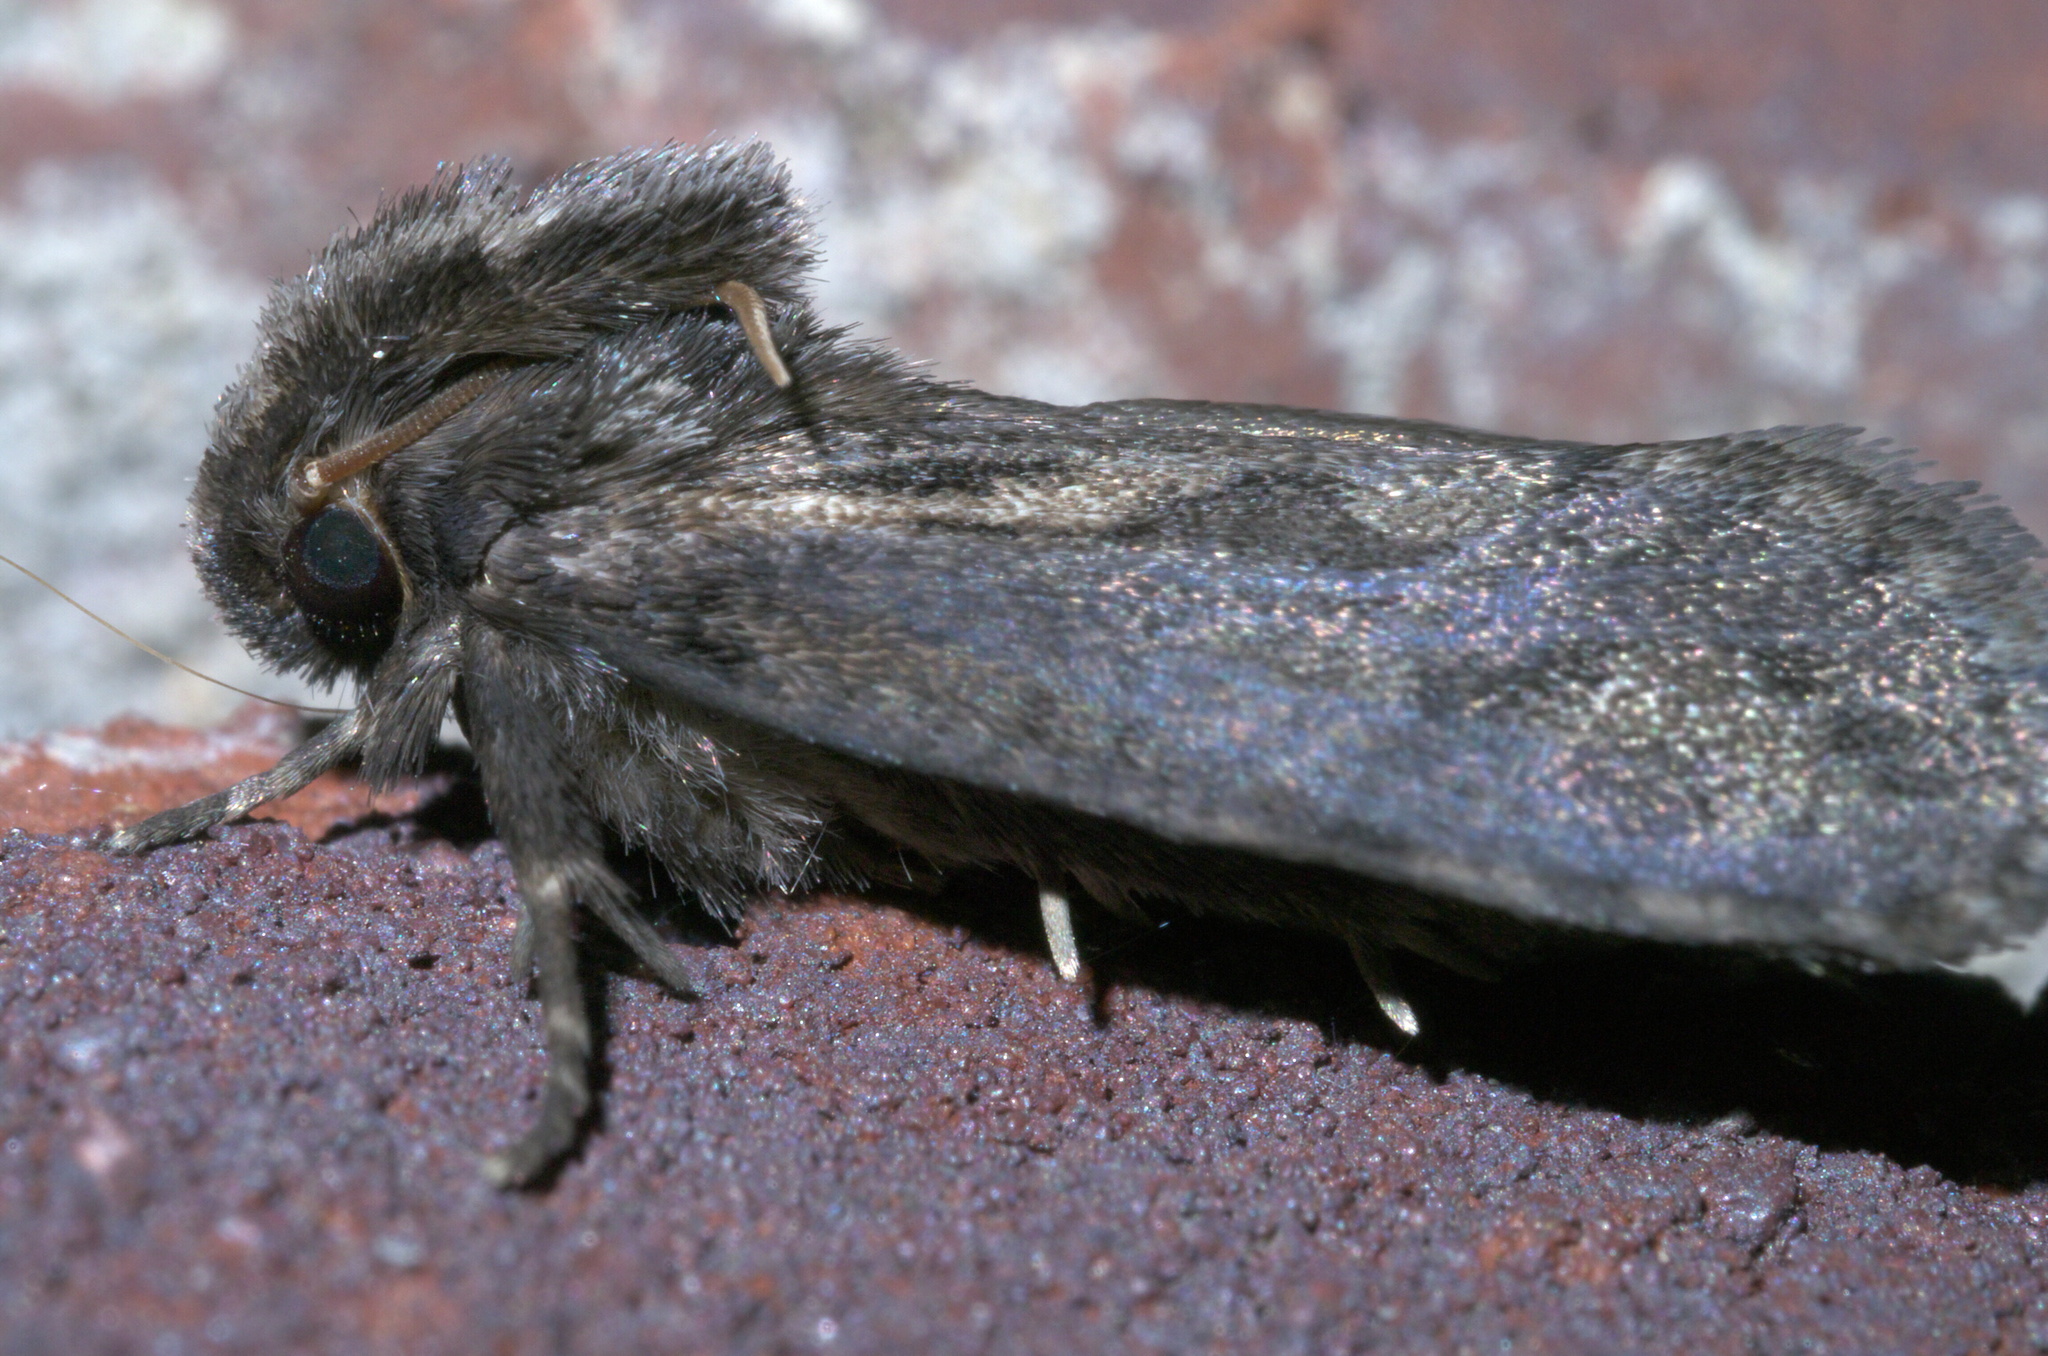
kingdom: Animalia
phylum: Arthropoda
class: Insecta
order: Lepidoptera
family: Tineidae
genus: Acrolophus
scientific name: Acrolophus popeanella
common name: Clemens' grass tubeworm moth
